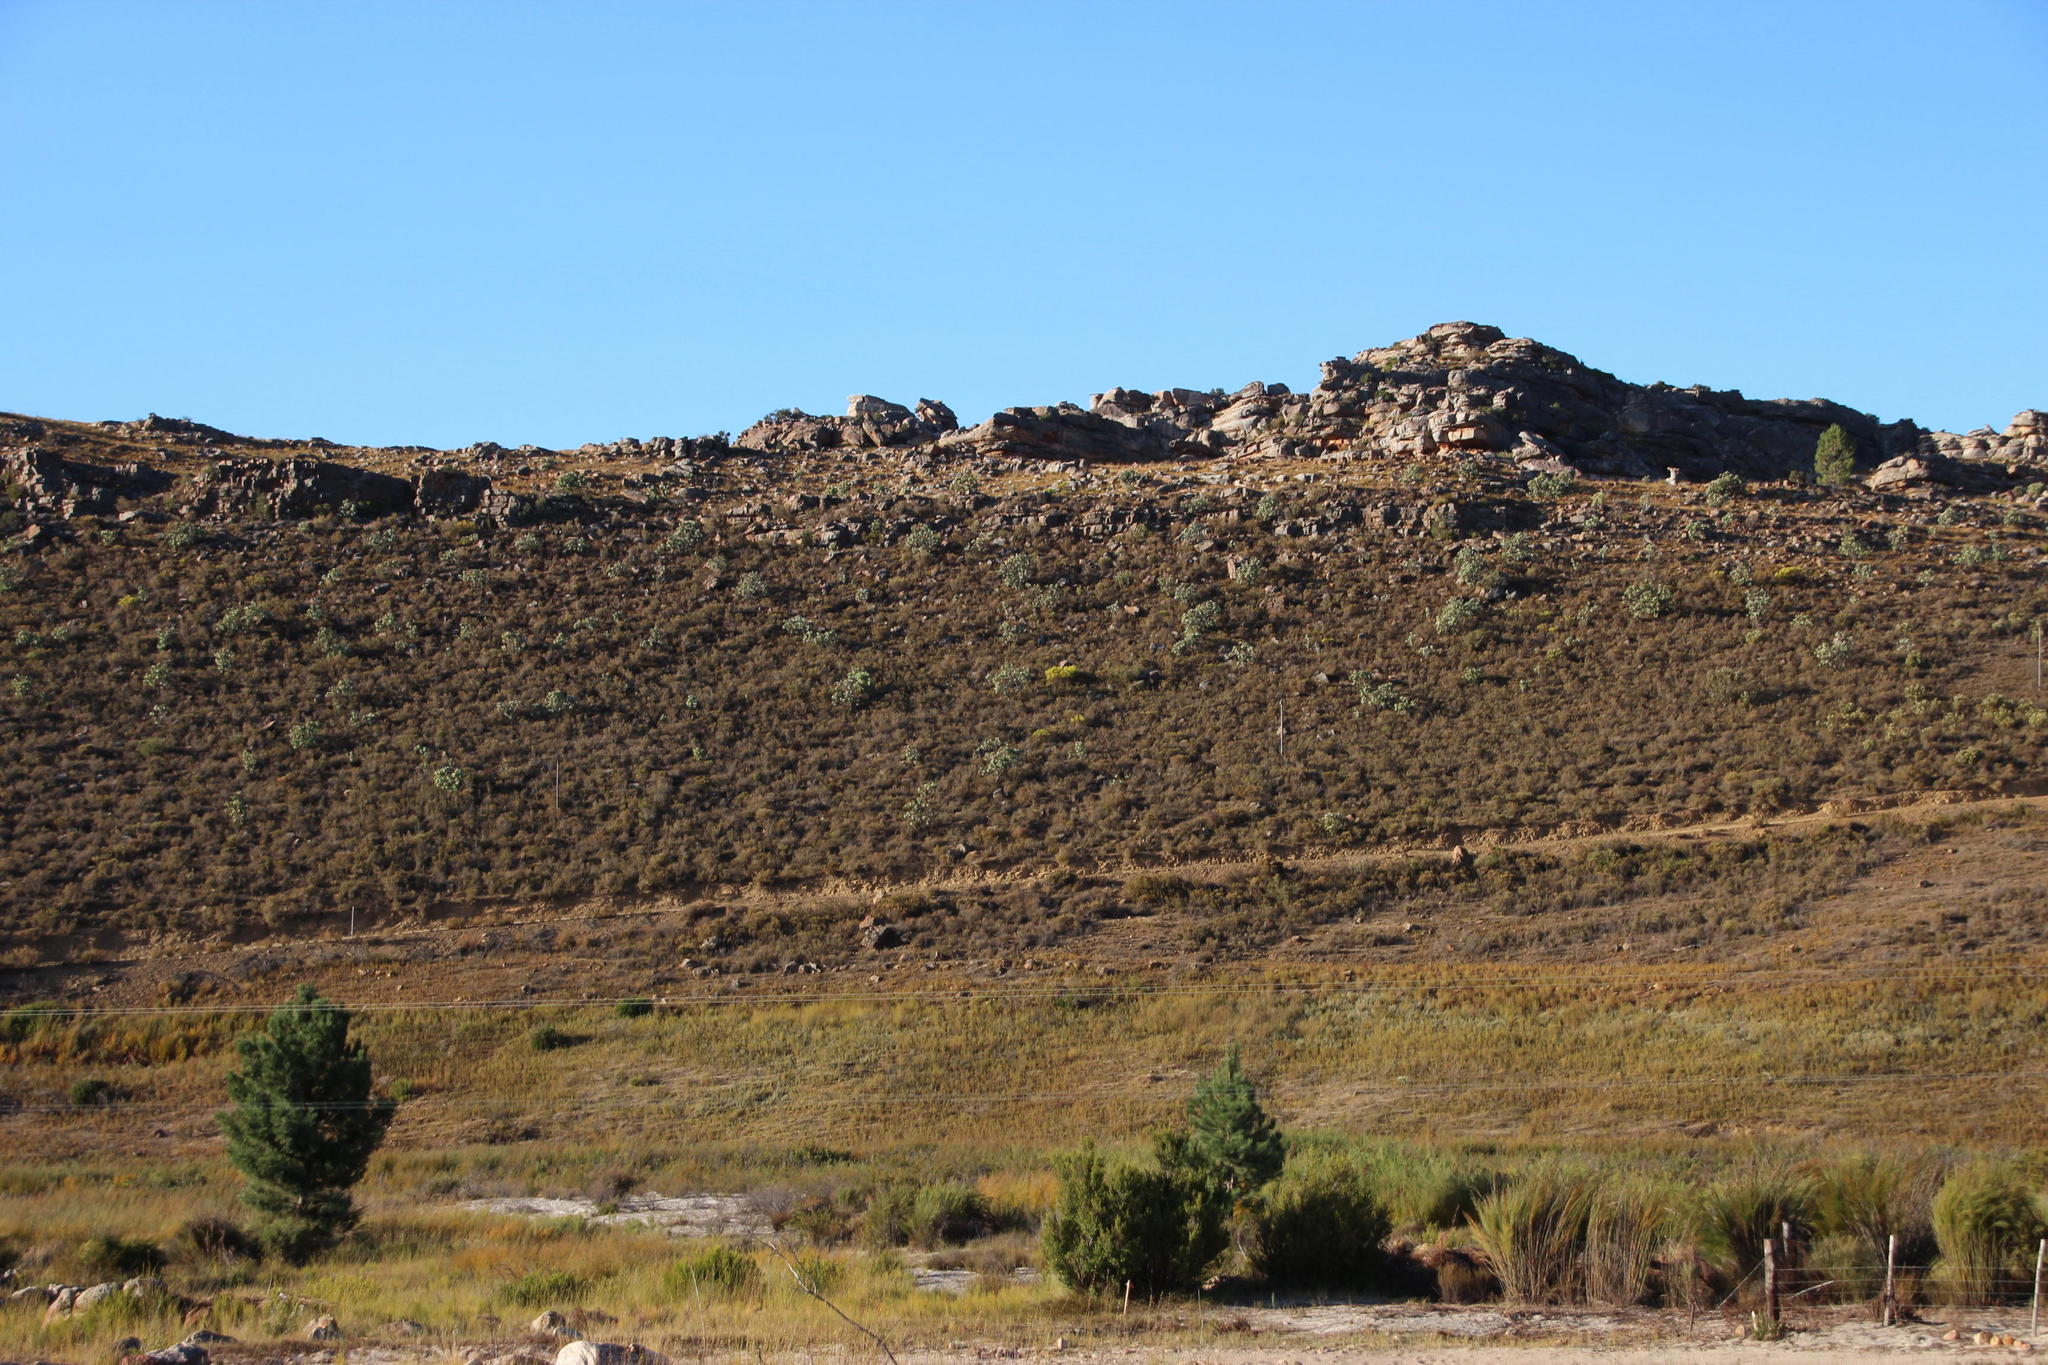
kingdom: Plantae
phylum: Tracheophyta
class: Pinopsida
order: Pinales
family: Pinaceae
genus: Pinus
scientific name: Pinus pinaster
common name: Maritime pine
